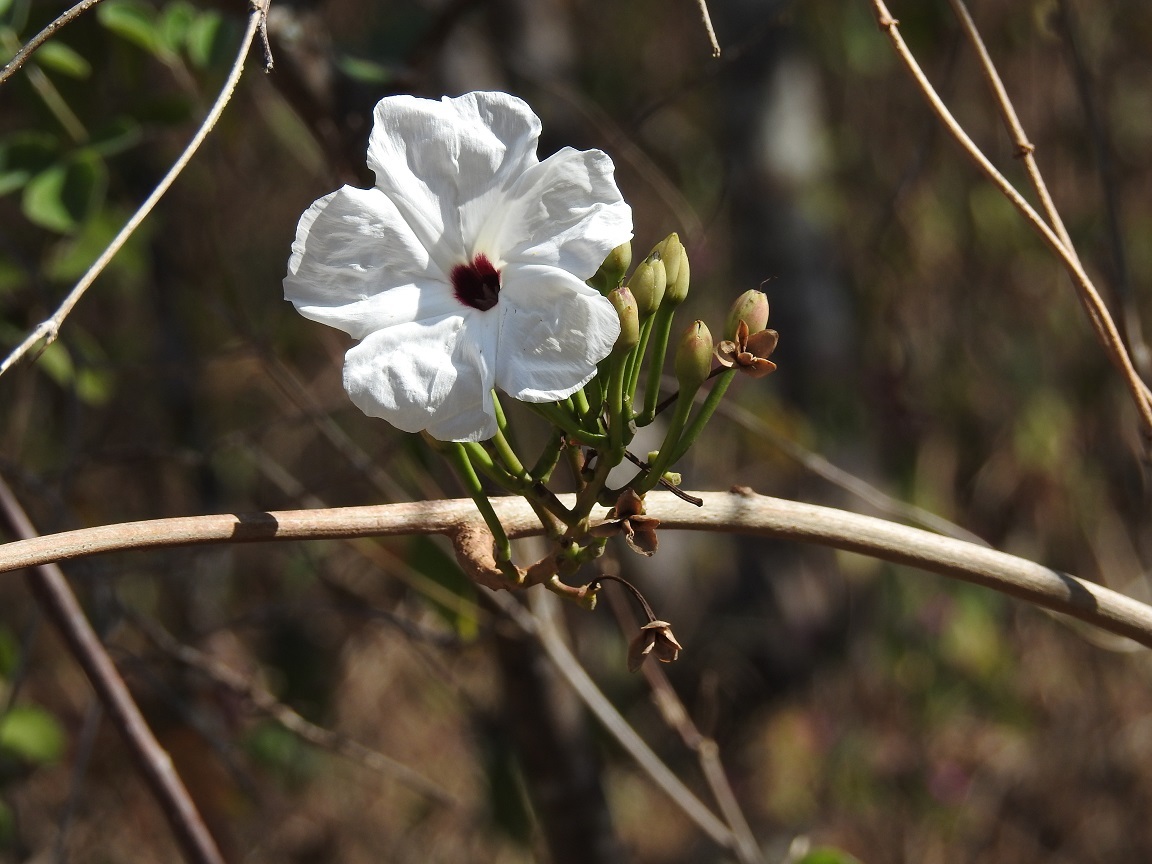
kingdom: Plantae
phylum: Tracheophyta
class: Magnoliopsida
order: Solanales
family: Convolvulaceae
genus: Ipomoea
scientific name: Ipomoea populina
